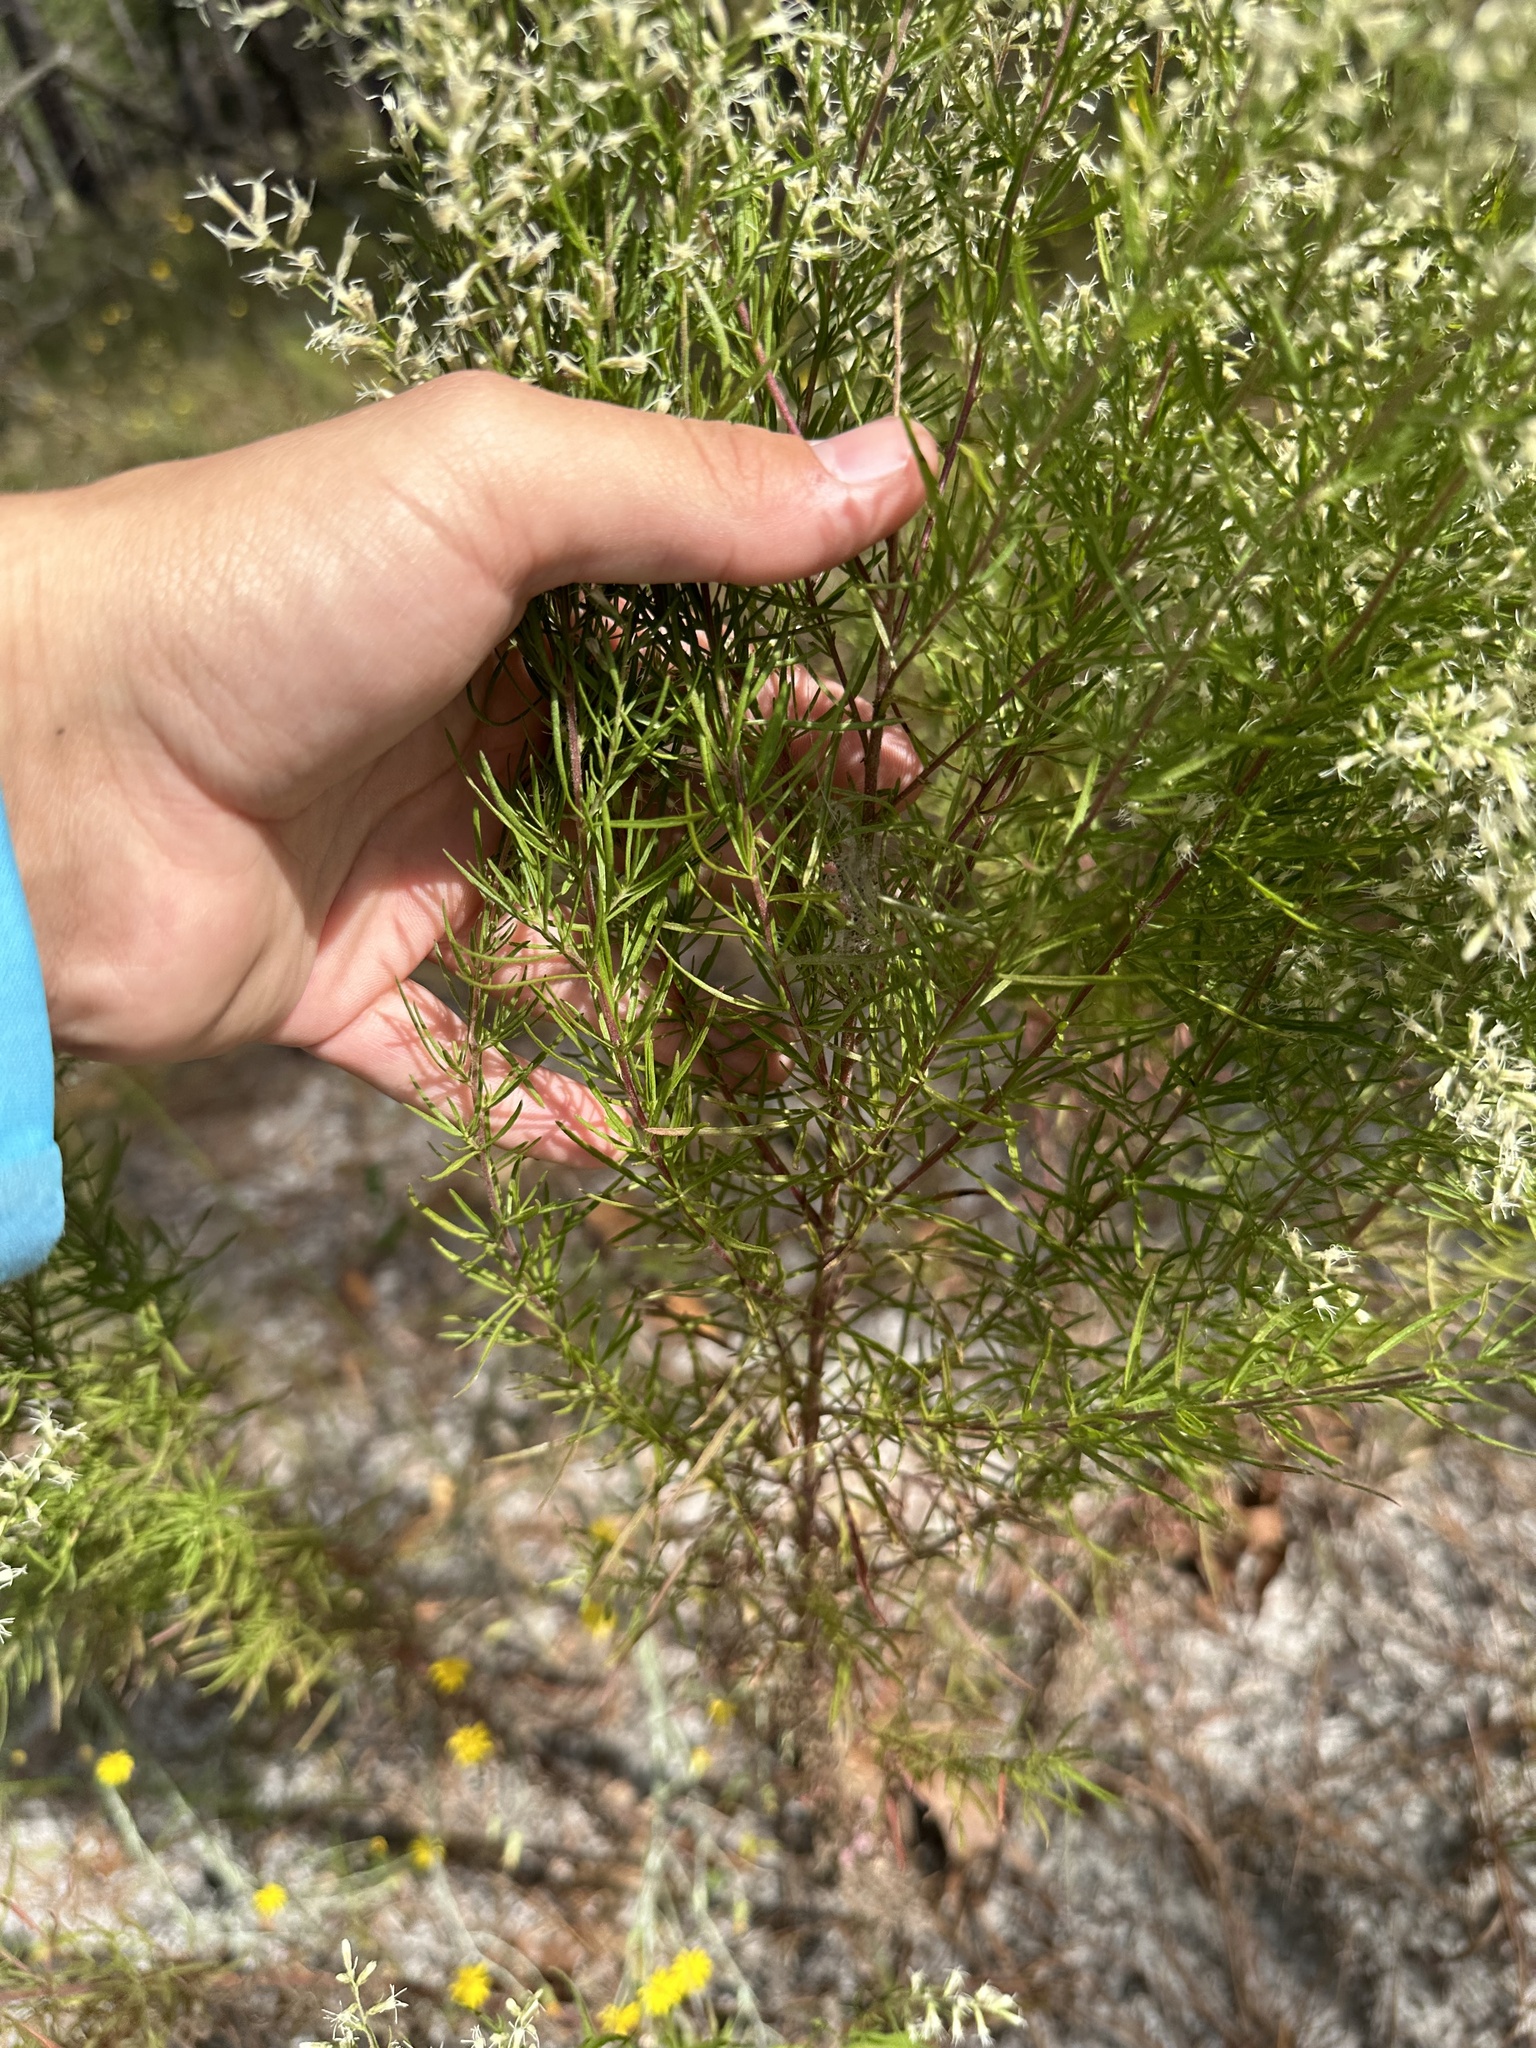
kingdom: Plantae
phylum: Tracheophyta
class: Magnoliopsida
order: Asterales
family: Asteraceae
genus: Eupatorium
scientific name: Eupatorium compositifolium
